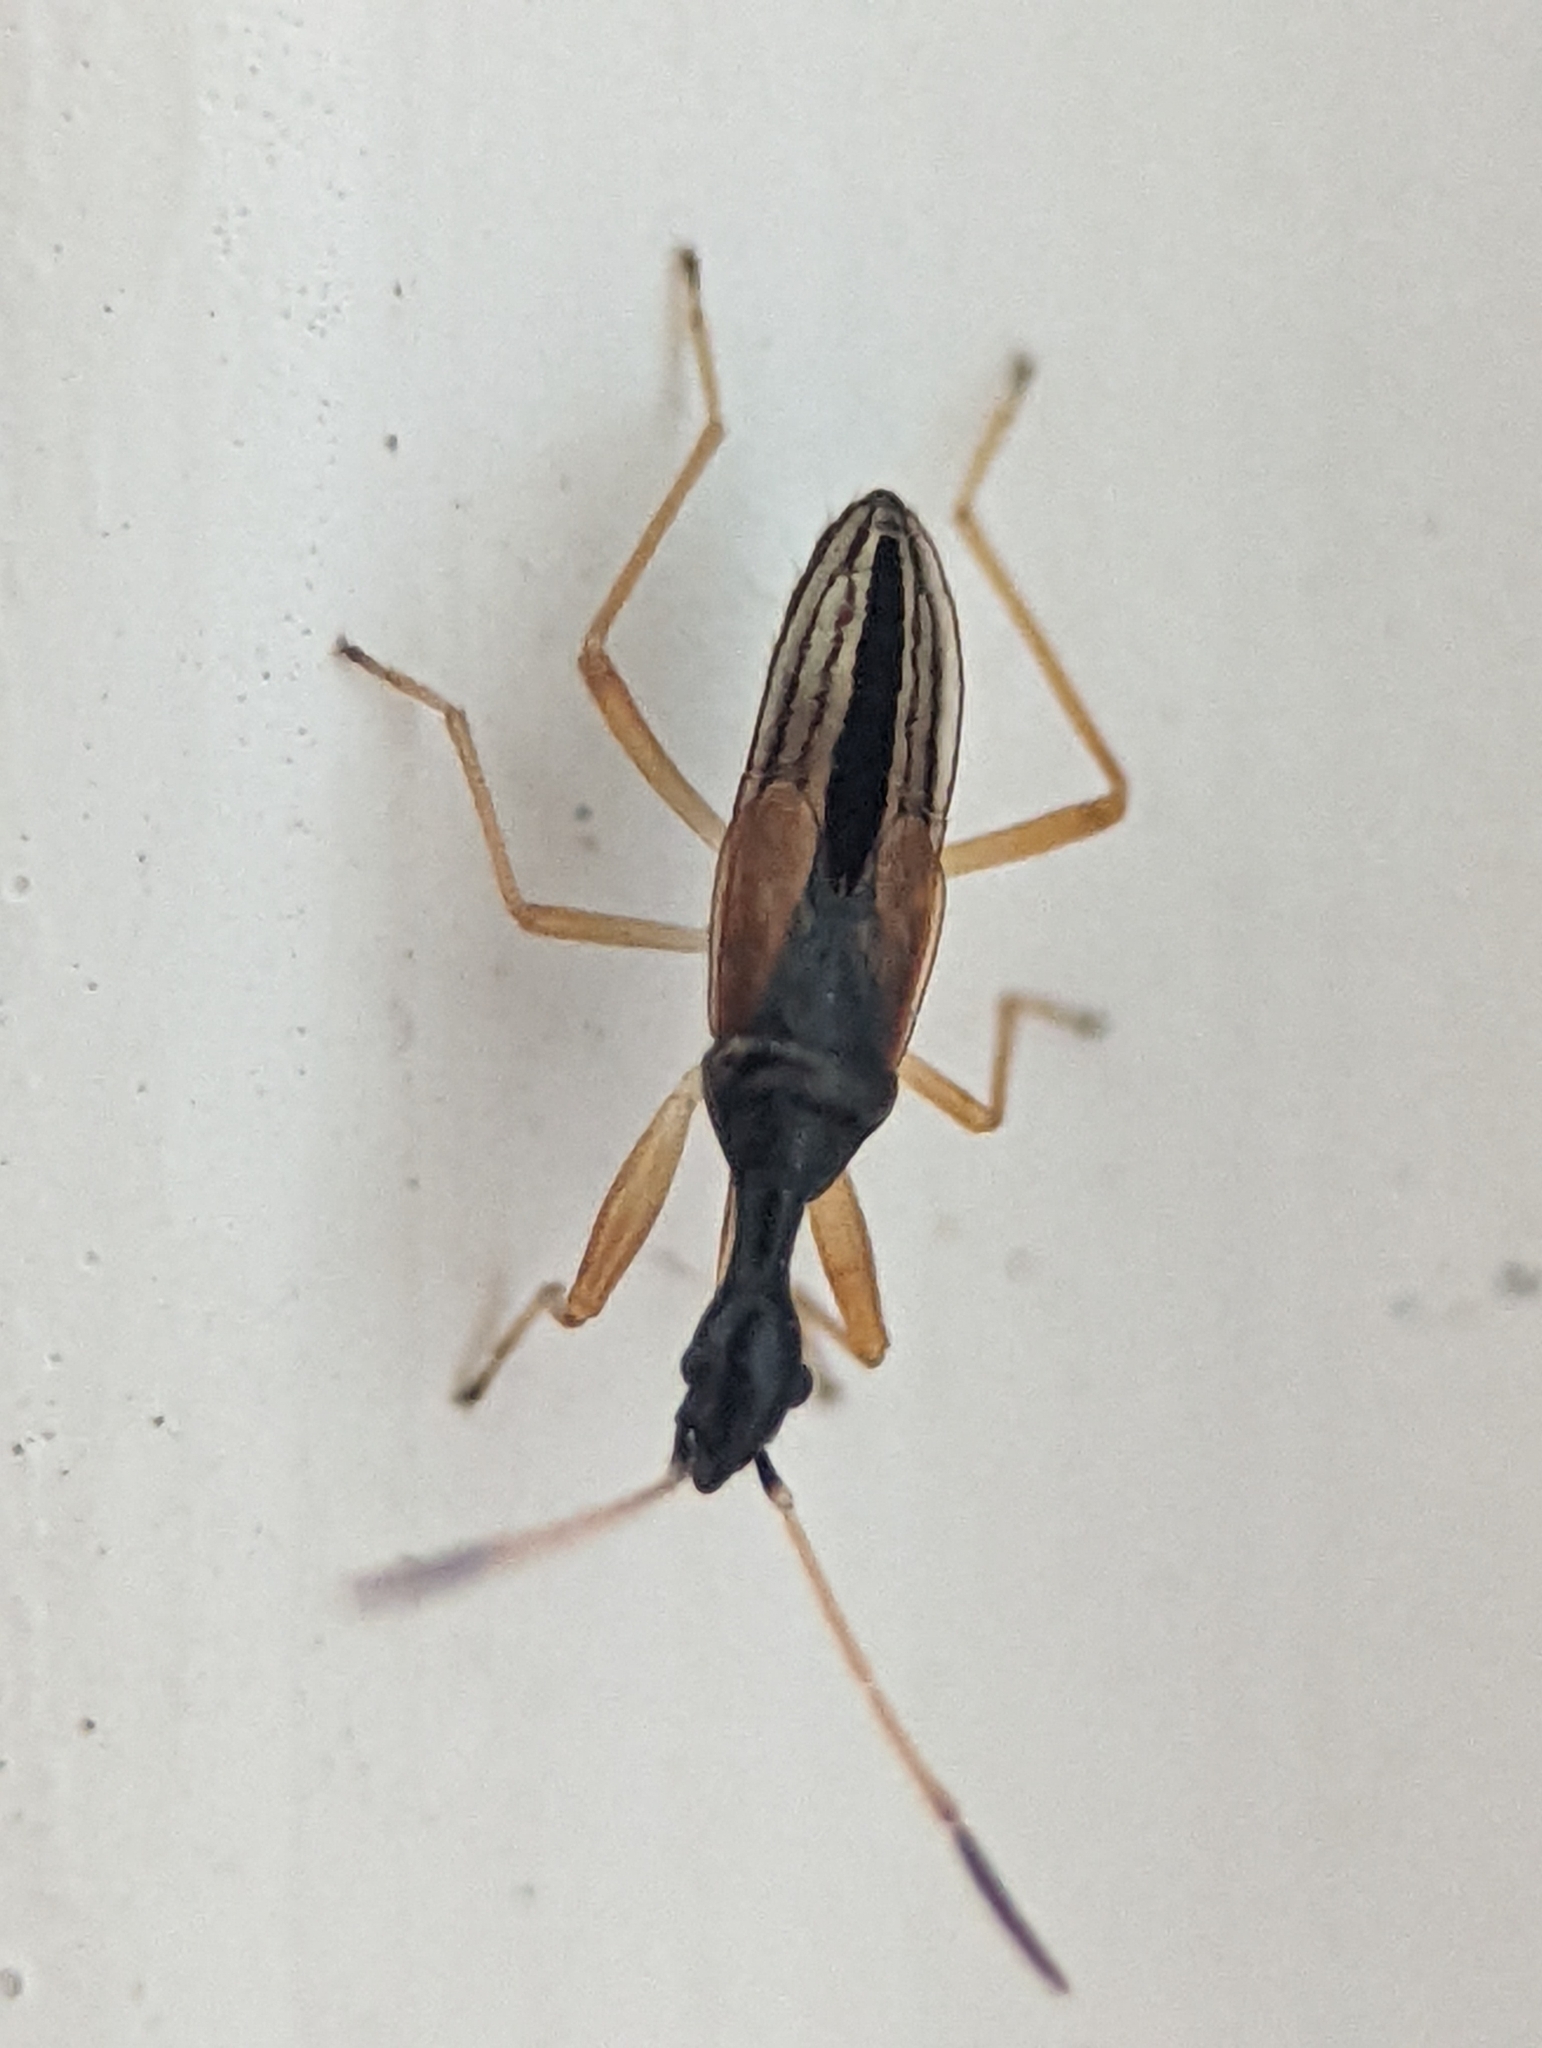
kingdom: Animalia
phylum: Arthropoda
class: Insecta
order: Hemiptera
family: Rhyparochromidae
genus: Myodocha
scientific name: Myodocha serripes
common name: Long-necked seed bug
